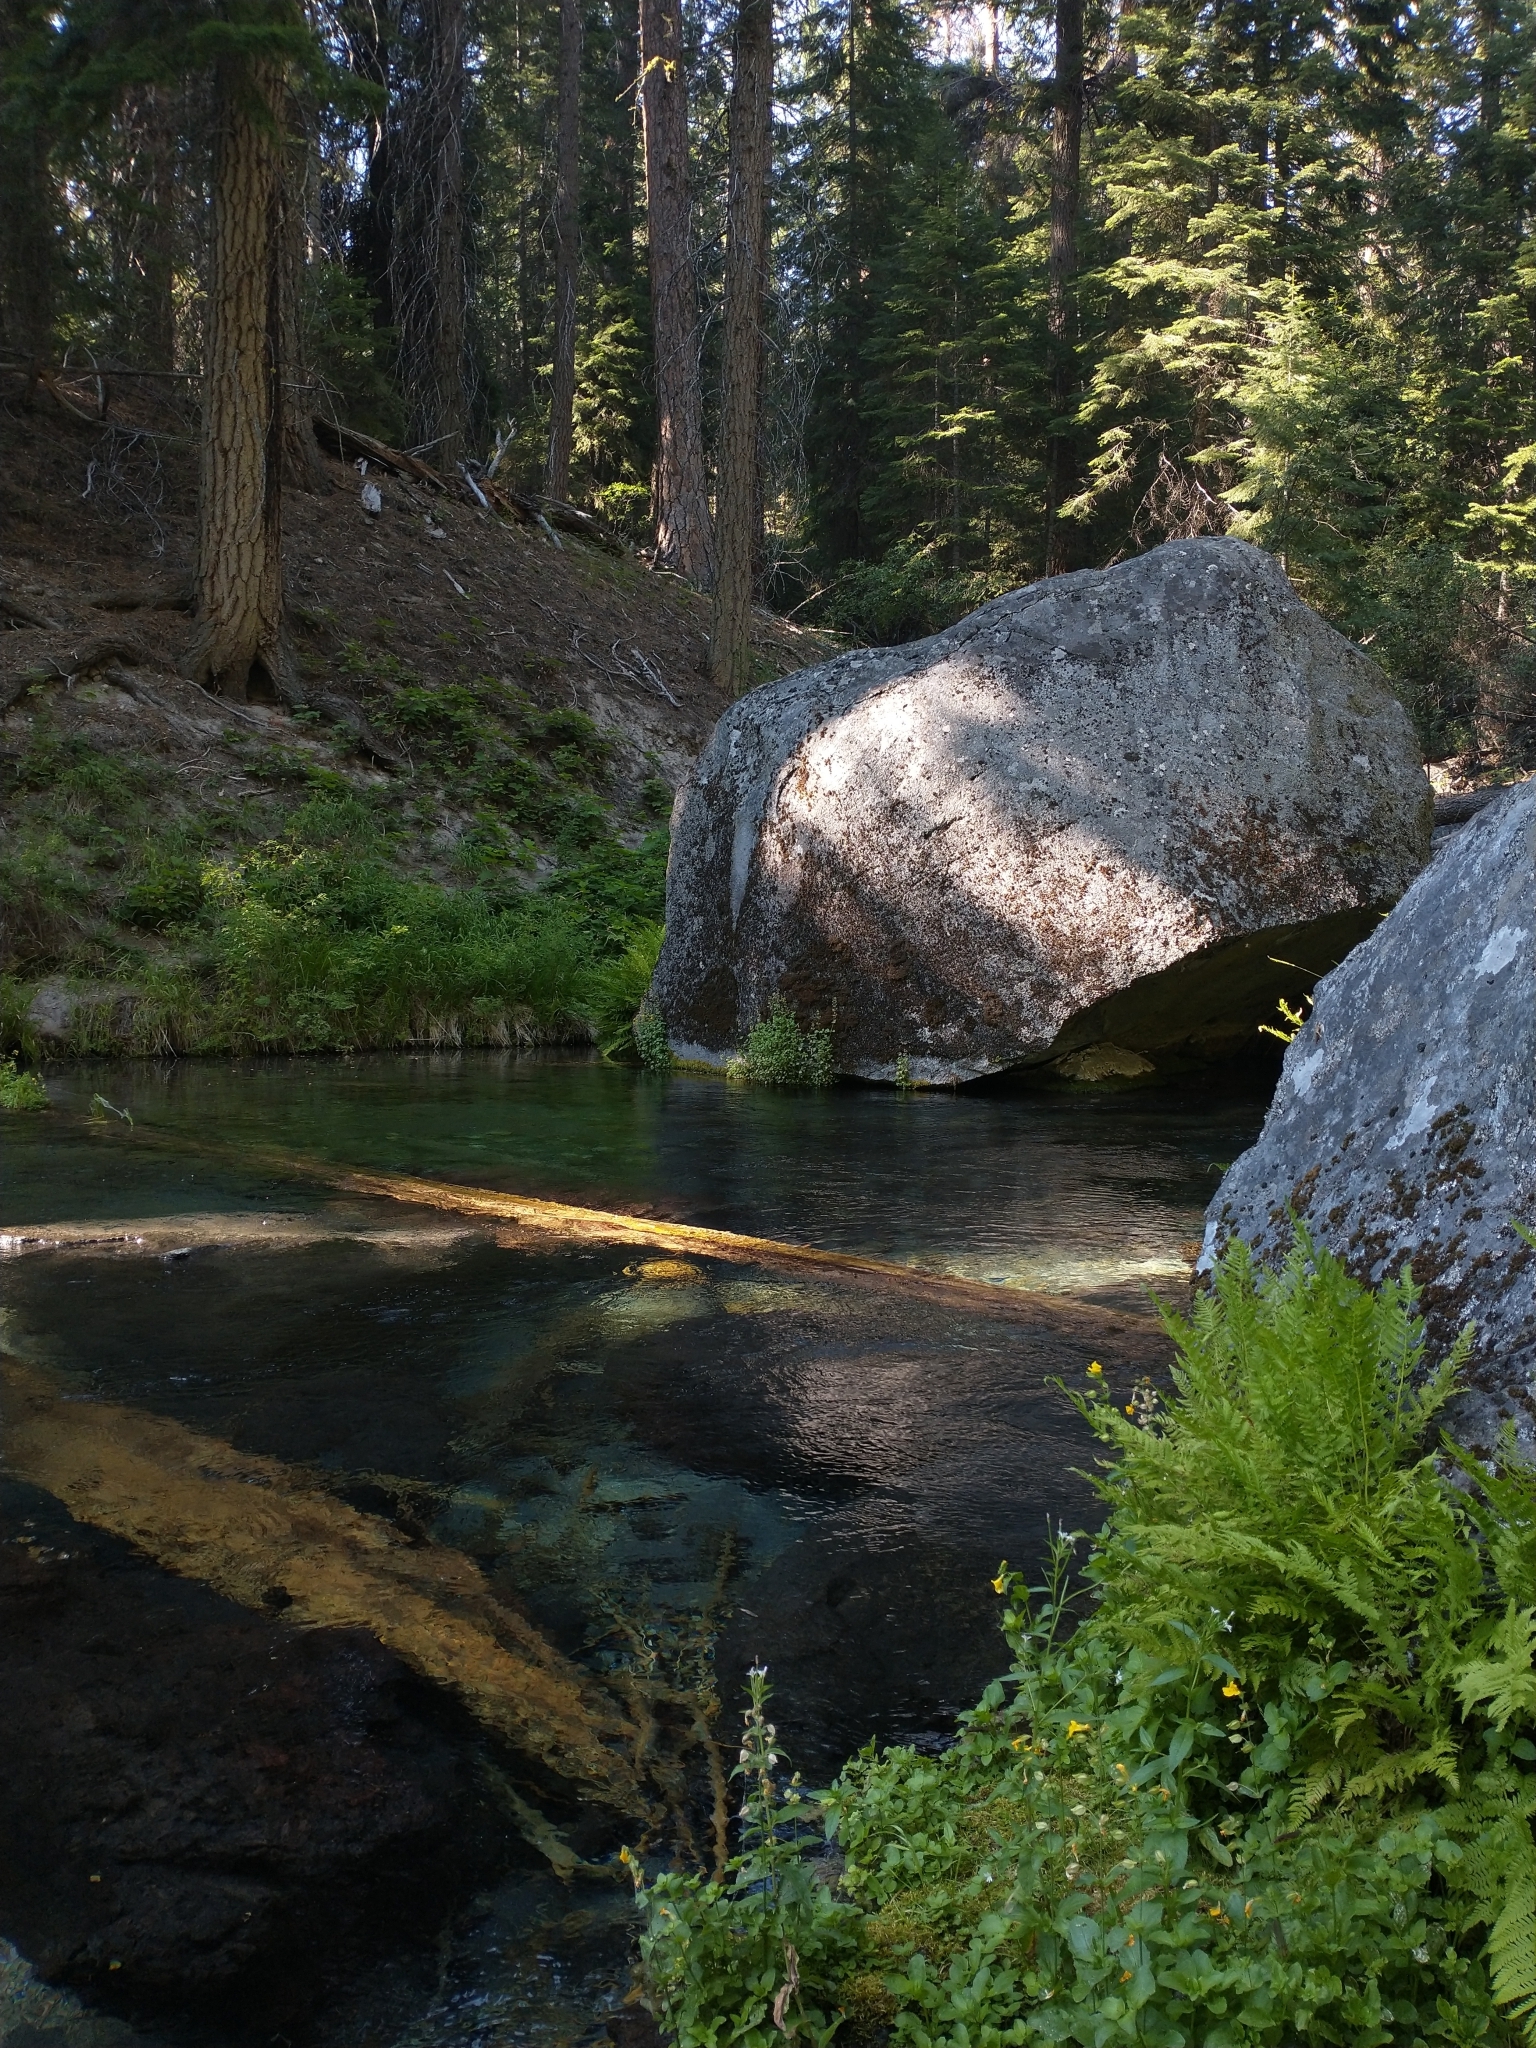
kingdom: Plantae
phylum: Tracheophyta
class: Polypodiopsida
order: Polypodiales
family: Athyriaceae
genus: Athyrium
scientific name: Athyrium cyclosorum
